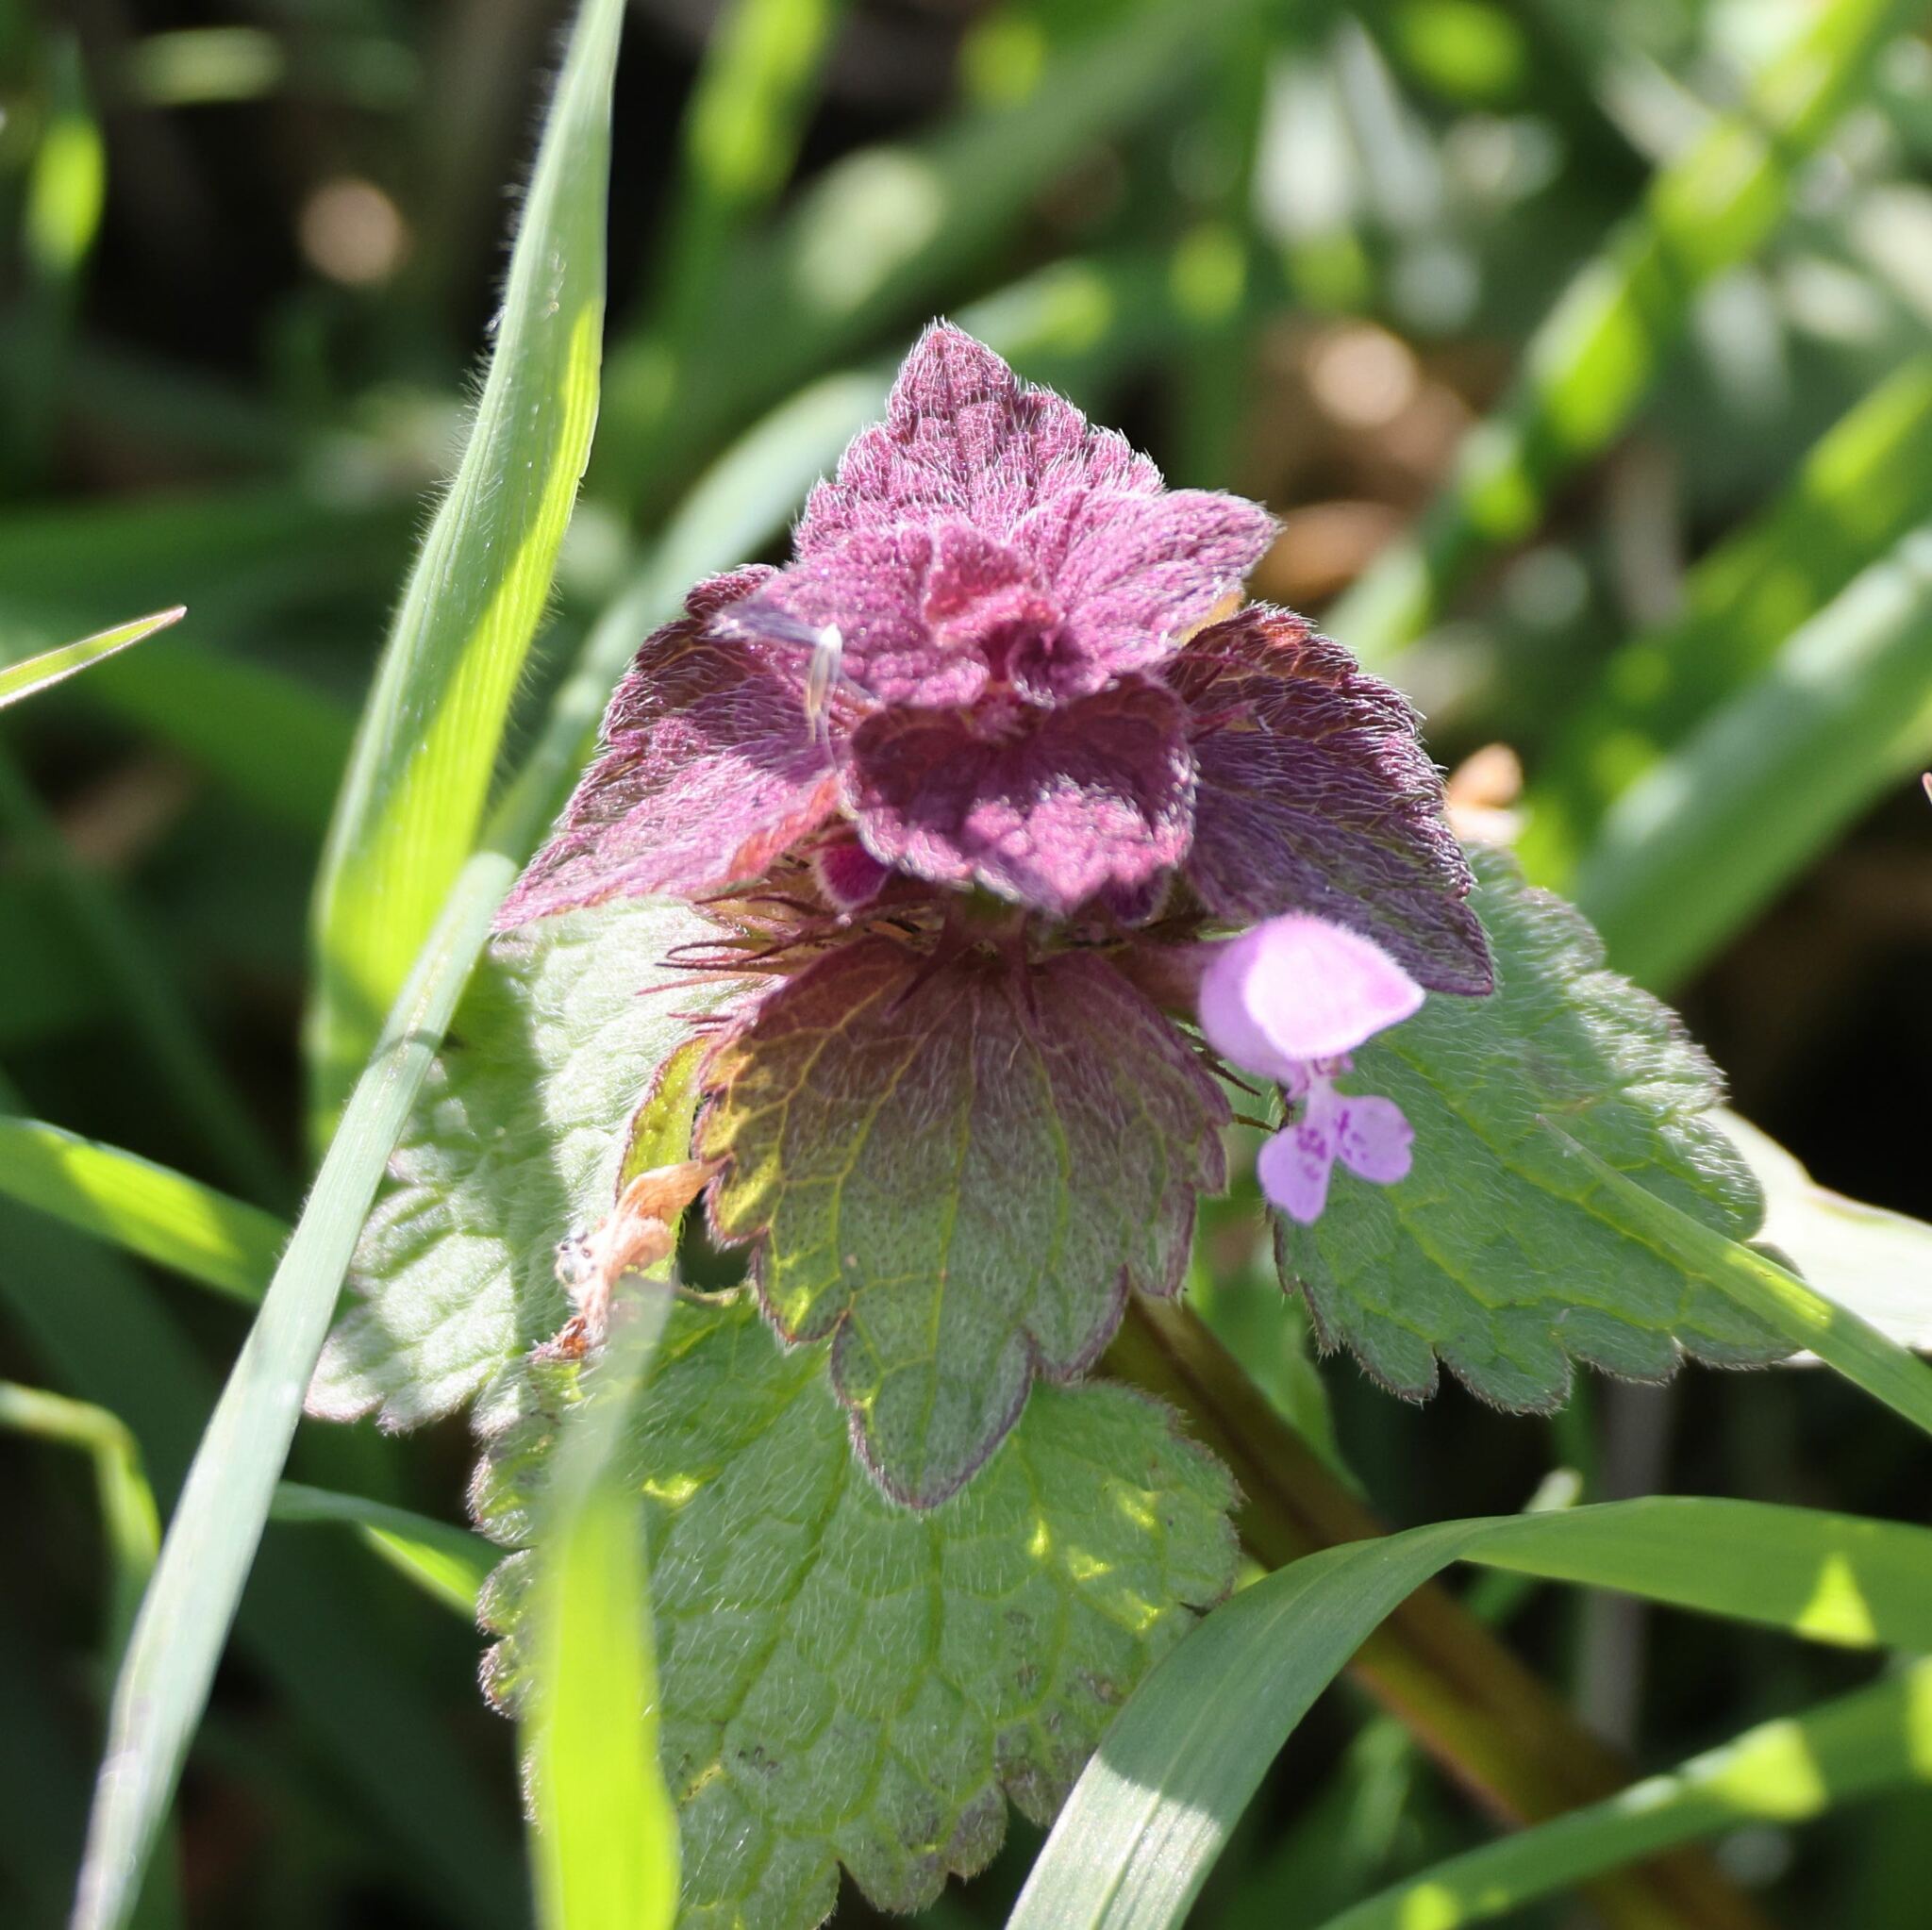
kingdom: Plantae
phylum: Tracheophyta
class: Magnoliopsida
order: Lamiales
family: Lamiaceae
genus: Lamium
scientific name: Lamium purpureum
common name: Red dead-nettle
